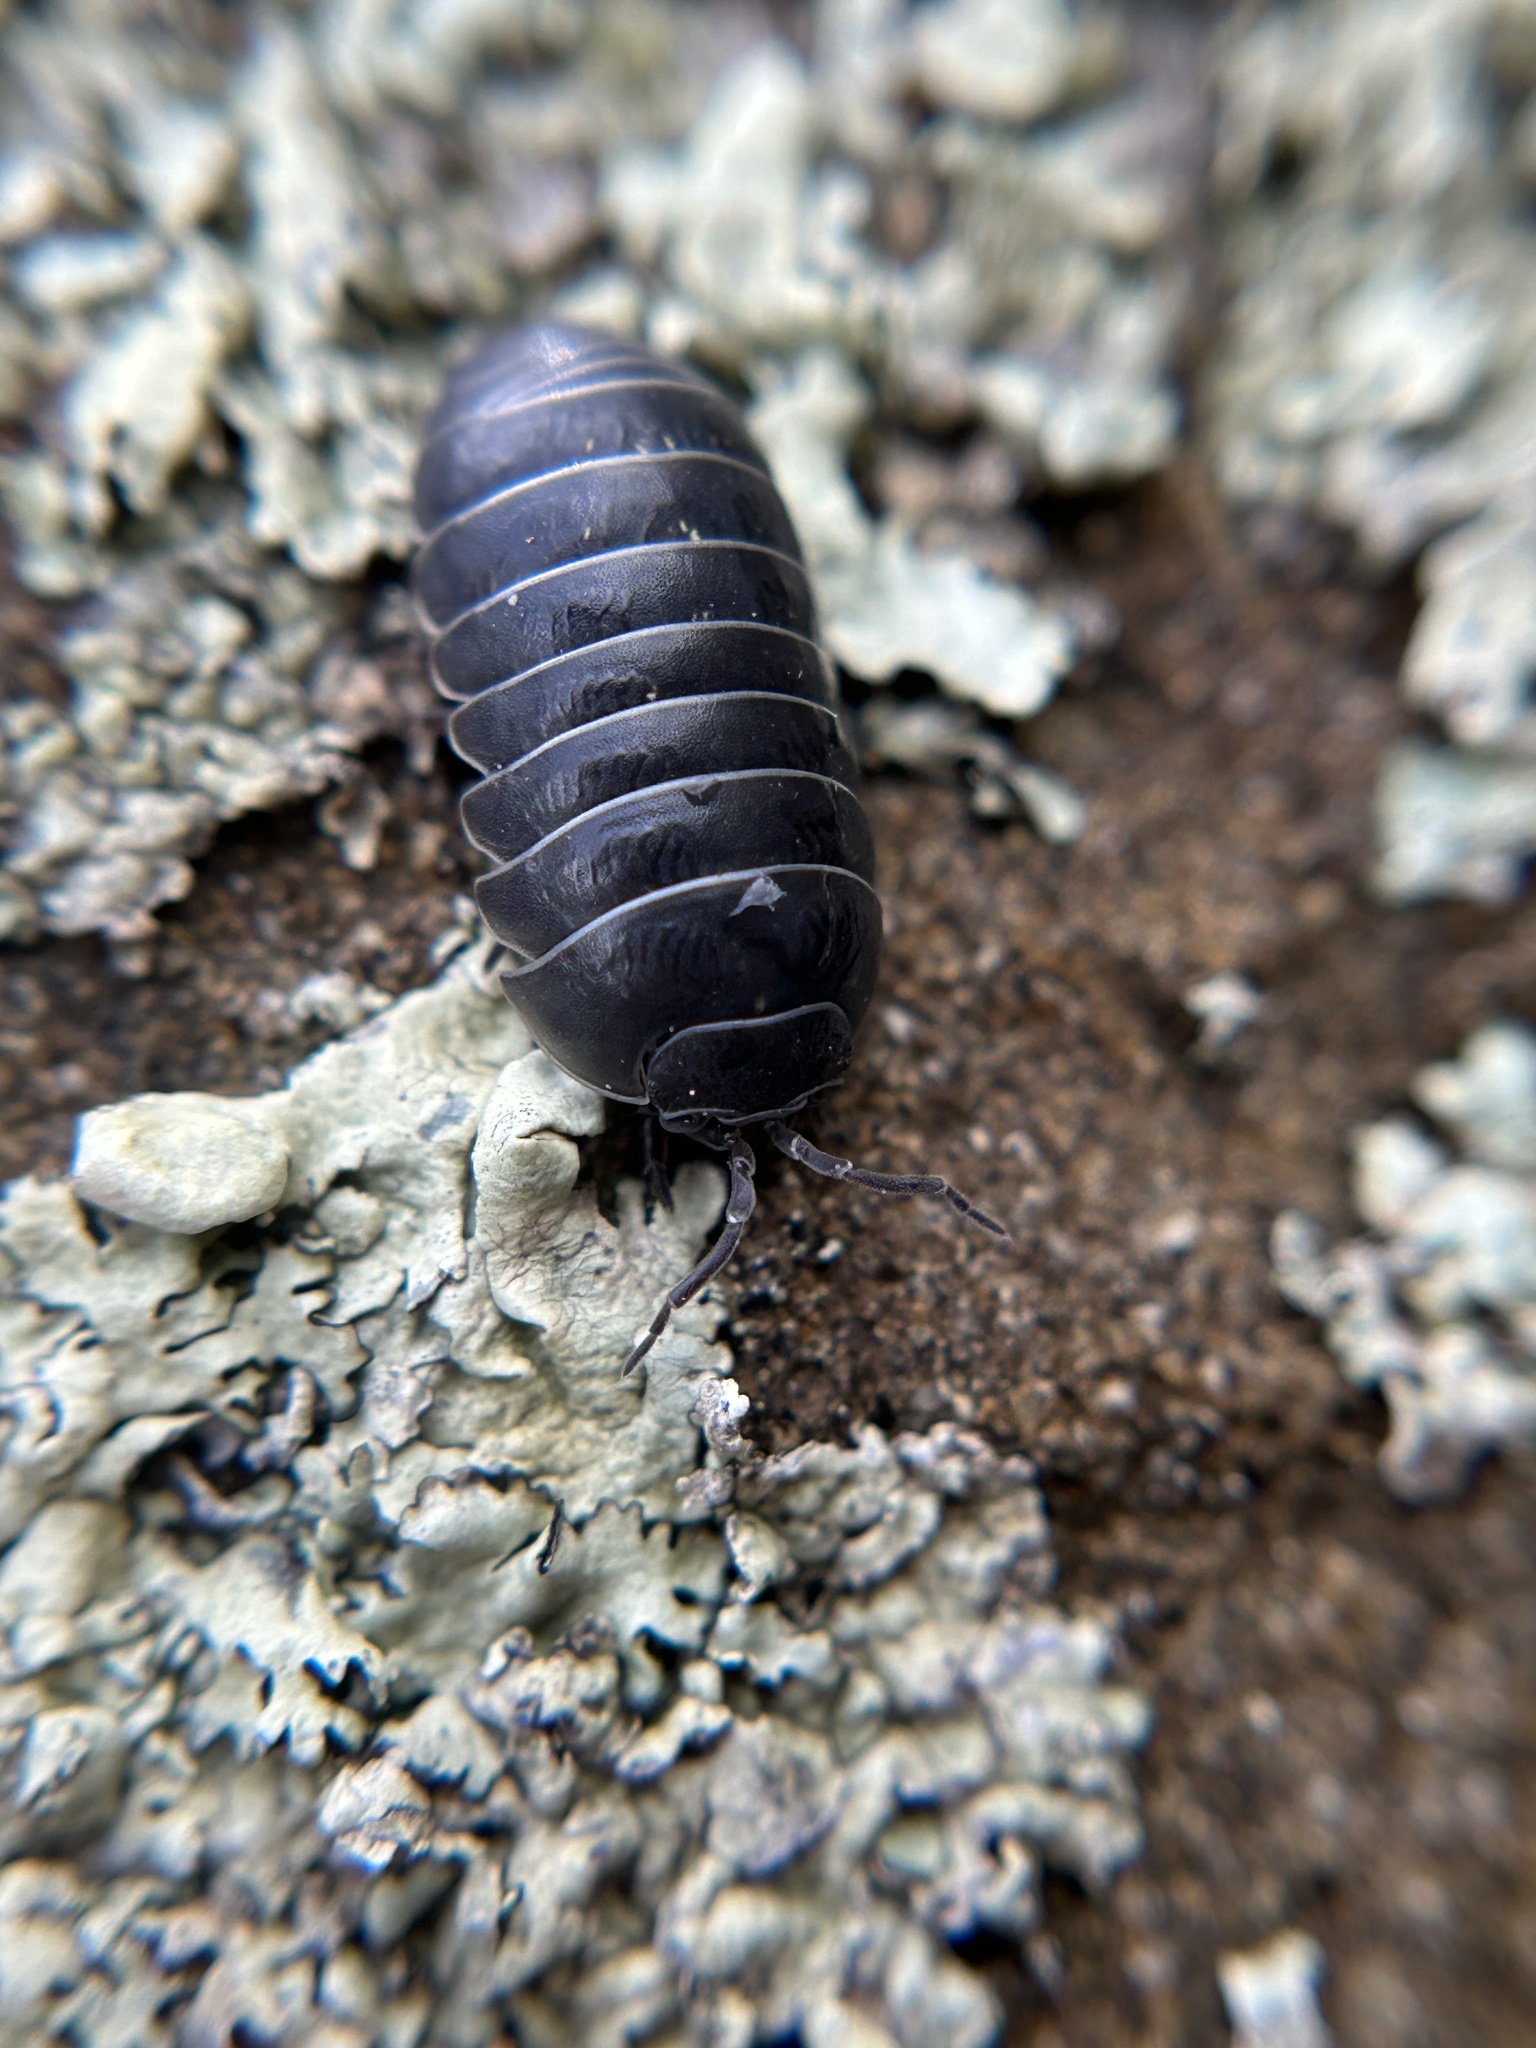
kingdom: Animalia
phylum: Arthropoda
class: Malacostraca
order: Isopoda
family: Armadillidiidae
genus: Armadillidium
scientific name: Armadillidium vulgare
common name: Common pill woodlouse
